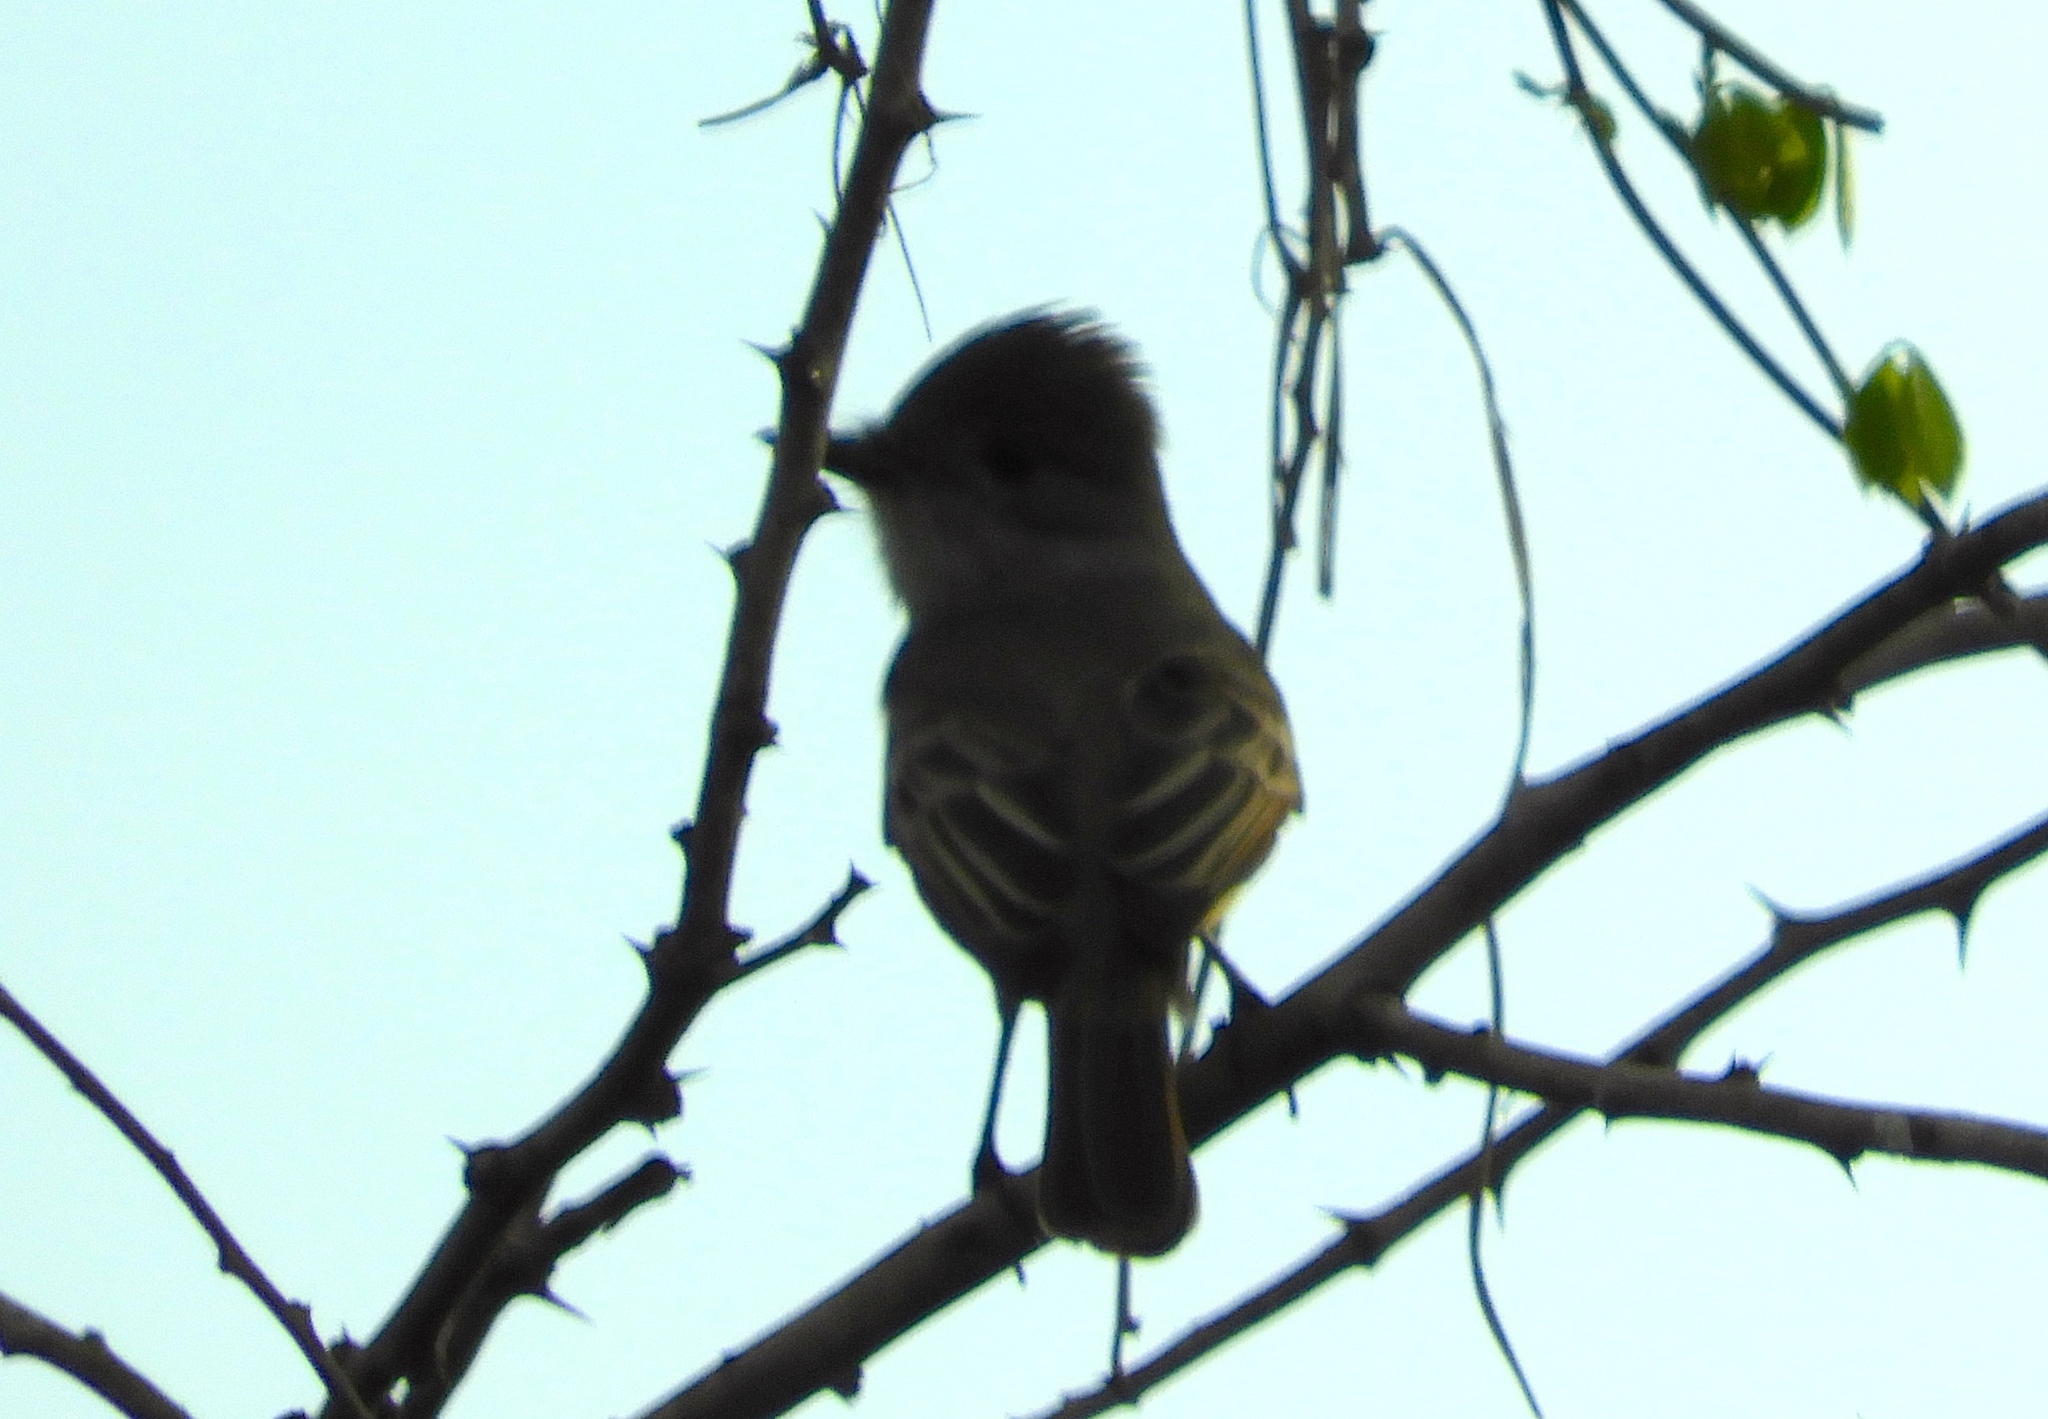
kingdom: Animalia
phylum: Chordata
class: Aves
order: Passeriformes
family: Tyrannidae
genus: Myiarchus
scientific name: Myiarchus
